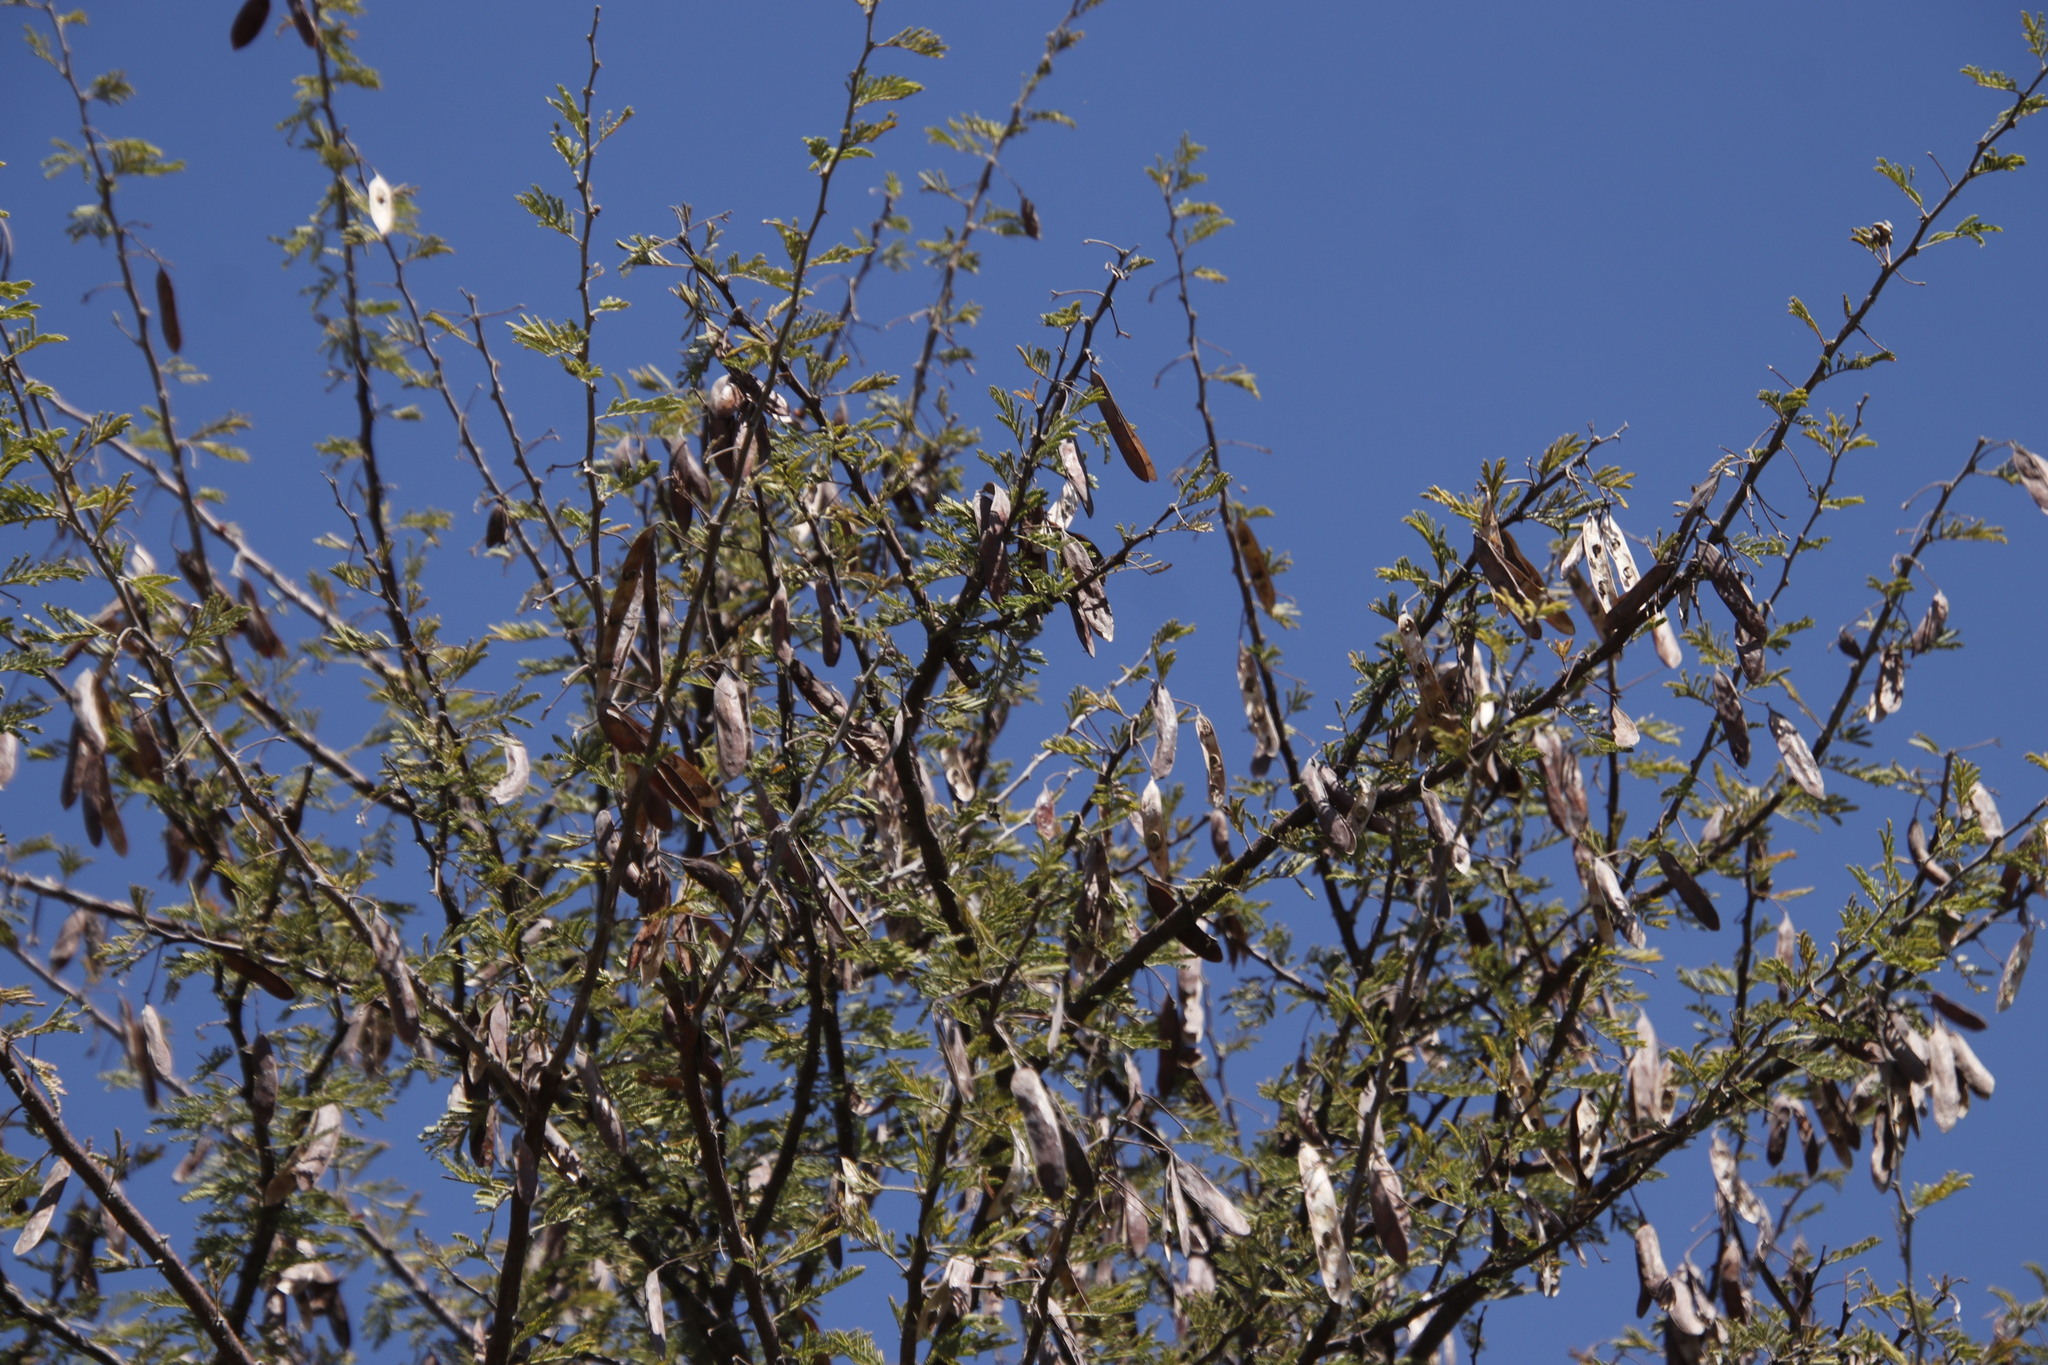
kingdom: Plantae
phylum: Tracheophyta
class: Magnoliopsida
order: Fabales
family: Fabaceae
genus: Vachellia
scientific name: Vachellia luederitzii
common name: Bastard umbrella thorn
